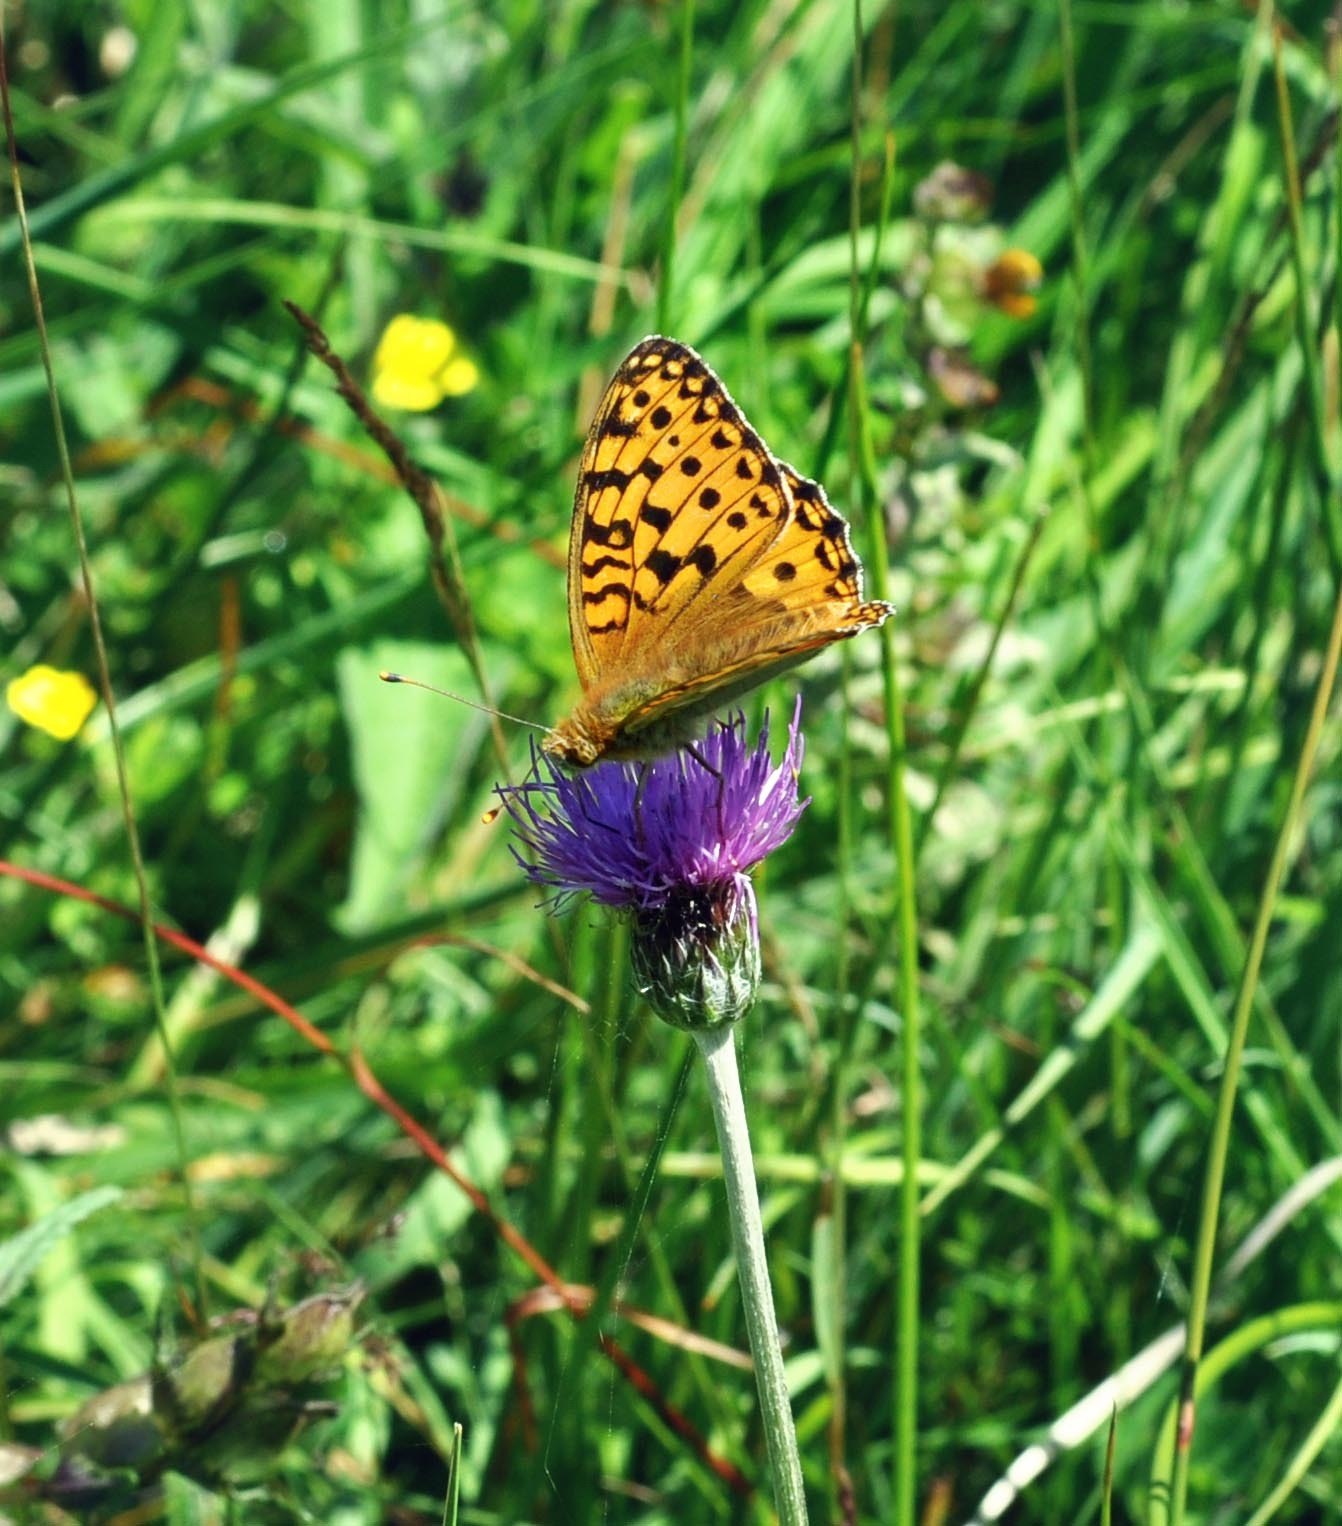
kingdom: Animalia
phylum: Arthropoda
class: Insecta
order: Lepidoptera
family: Nymphalidae
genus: Speyeria
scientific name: Speyeria aglaja
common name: Dark green fritillary
